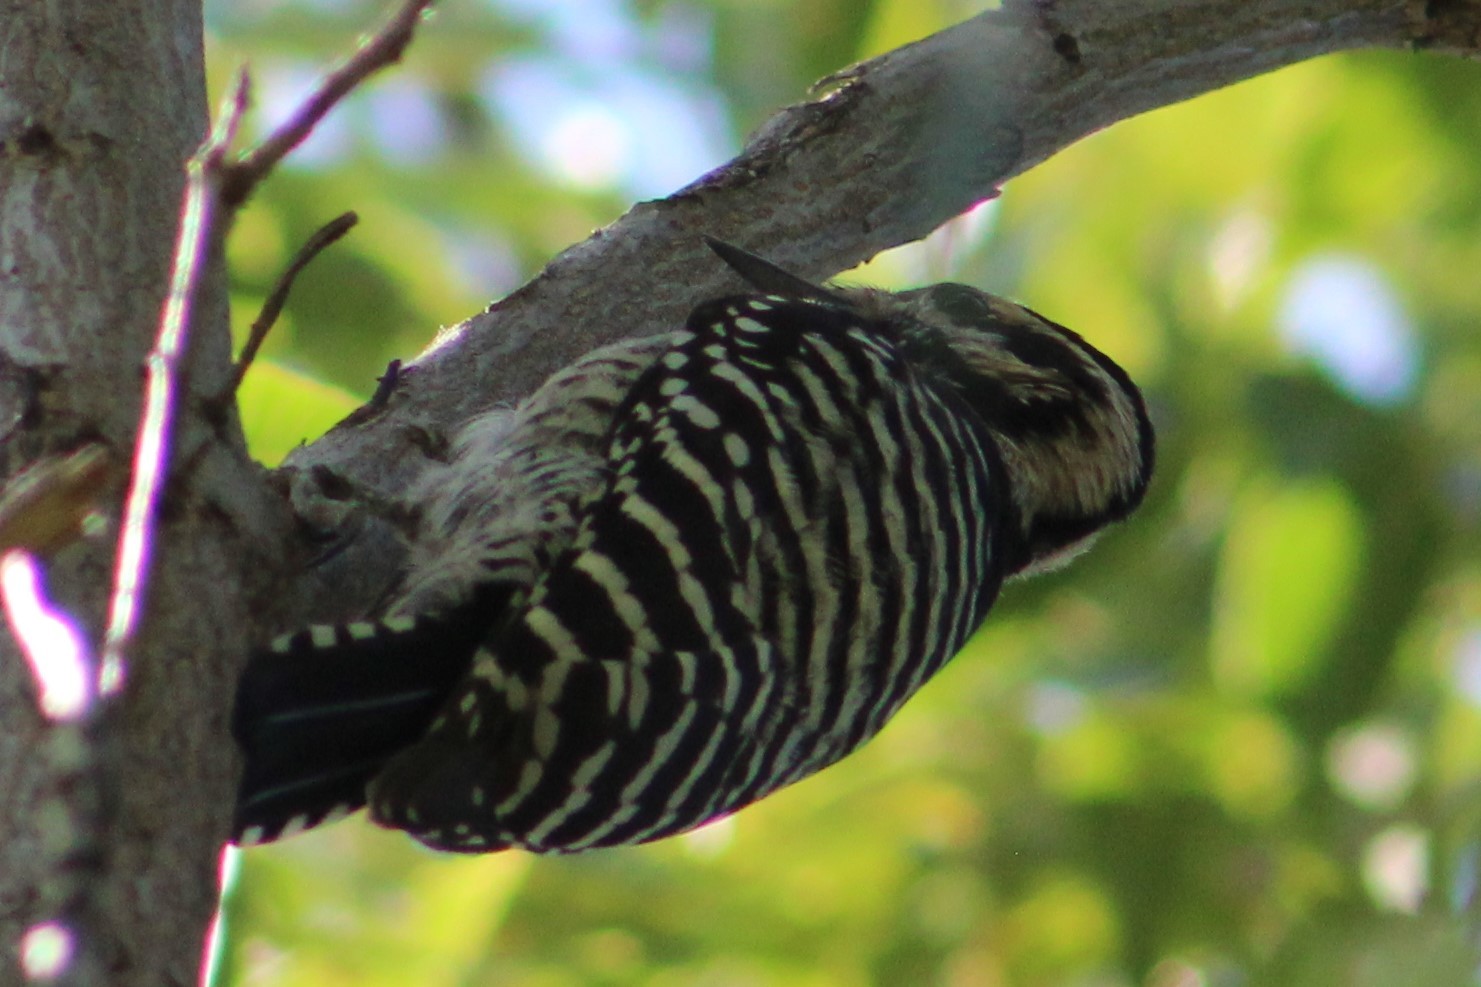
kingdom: Animalia
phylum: Chordata
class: Aves
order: Piciformes
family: Picidae
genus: Dryobates
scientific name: Dryobates scalaris
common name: Ladder-backed woodpecker
